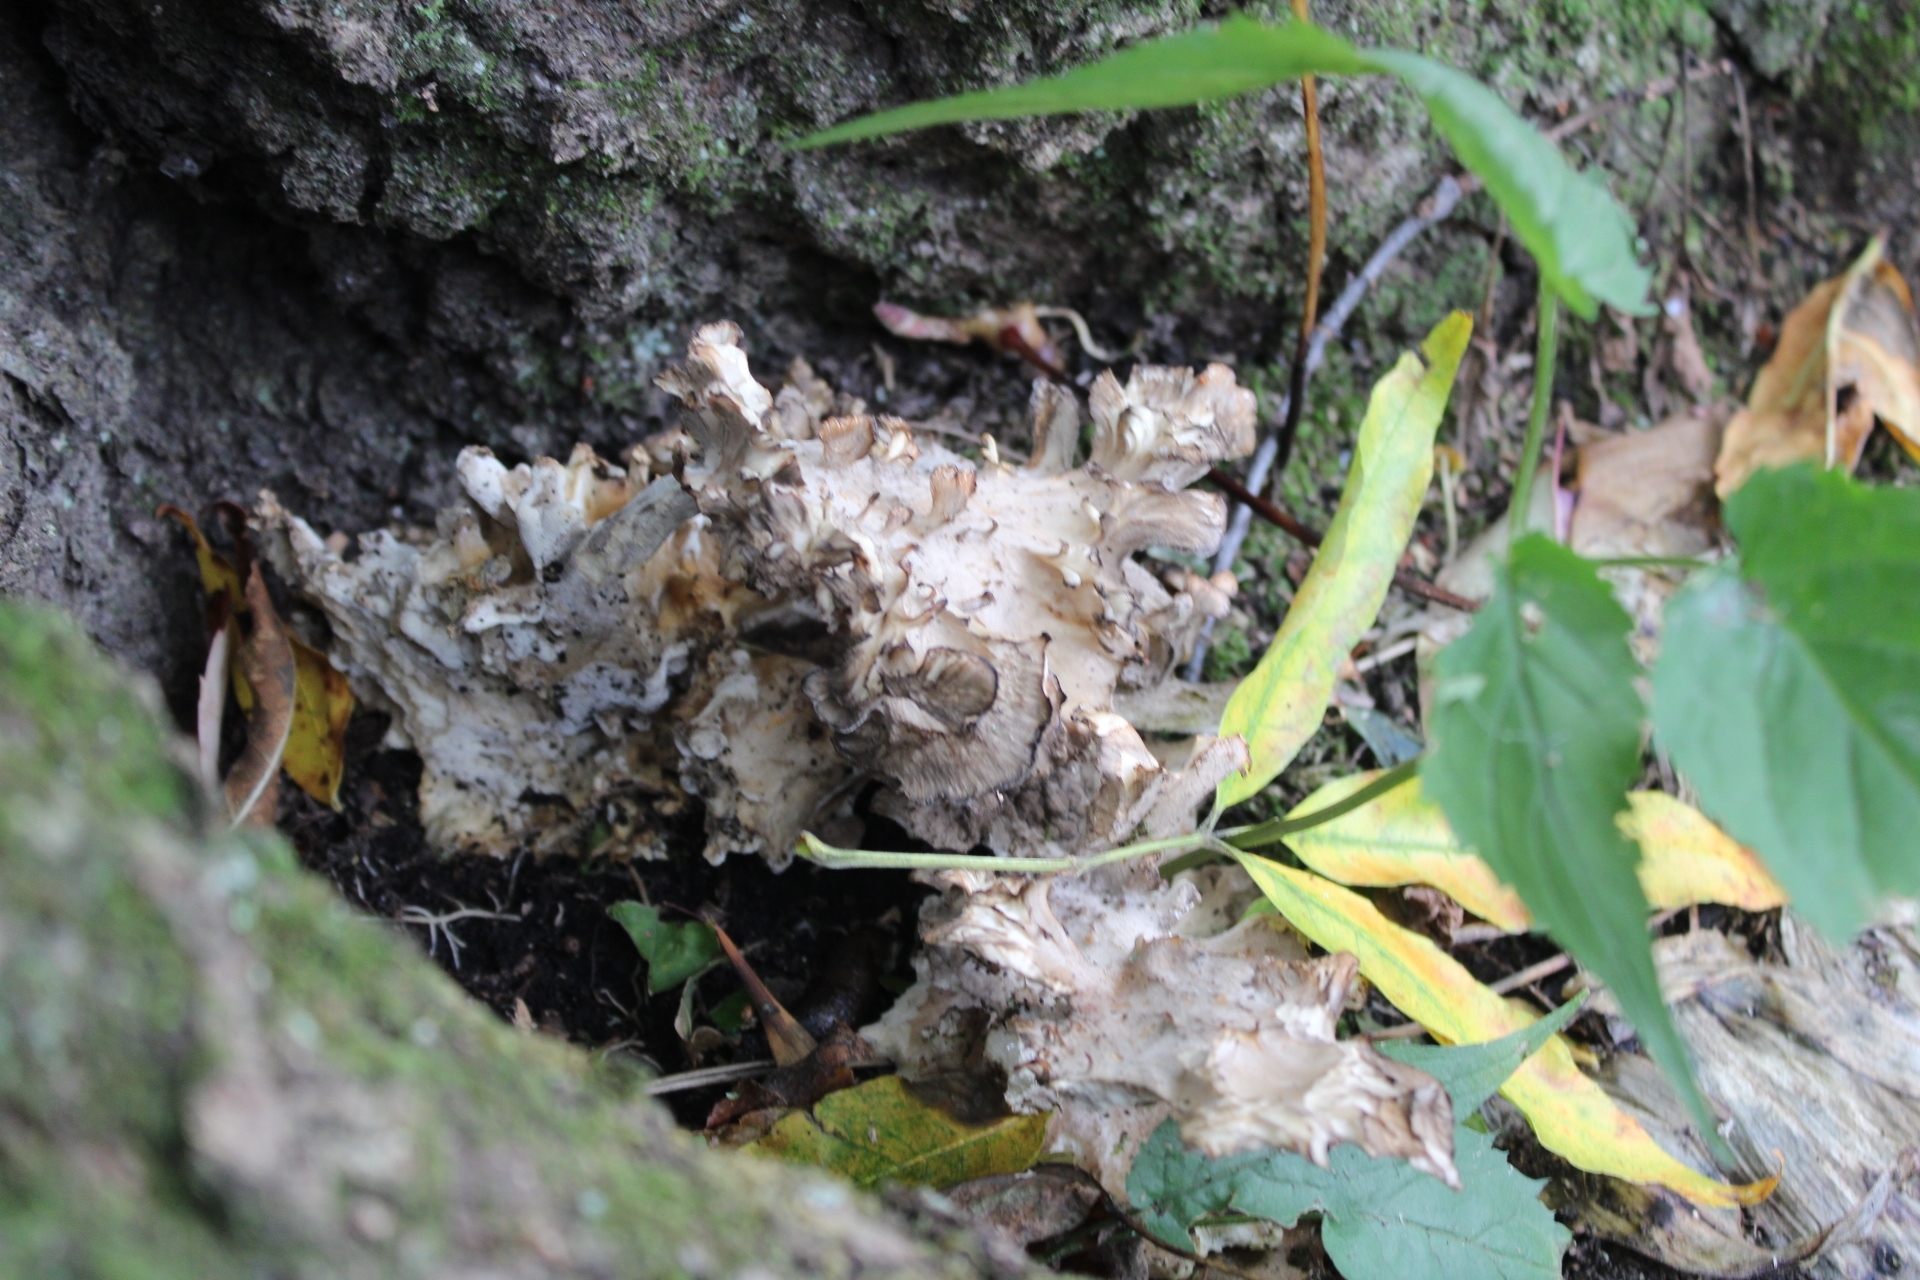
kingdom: Fungi
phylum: Basidiomycota
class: Agaricomycetes
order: Polyporales
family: Grifolaceae
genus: Grifola
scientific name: Grifola frondosa
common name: Hen of the woods
